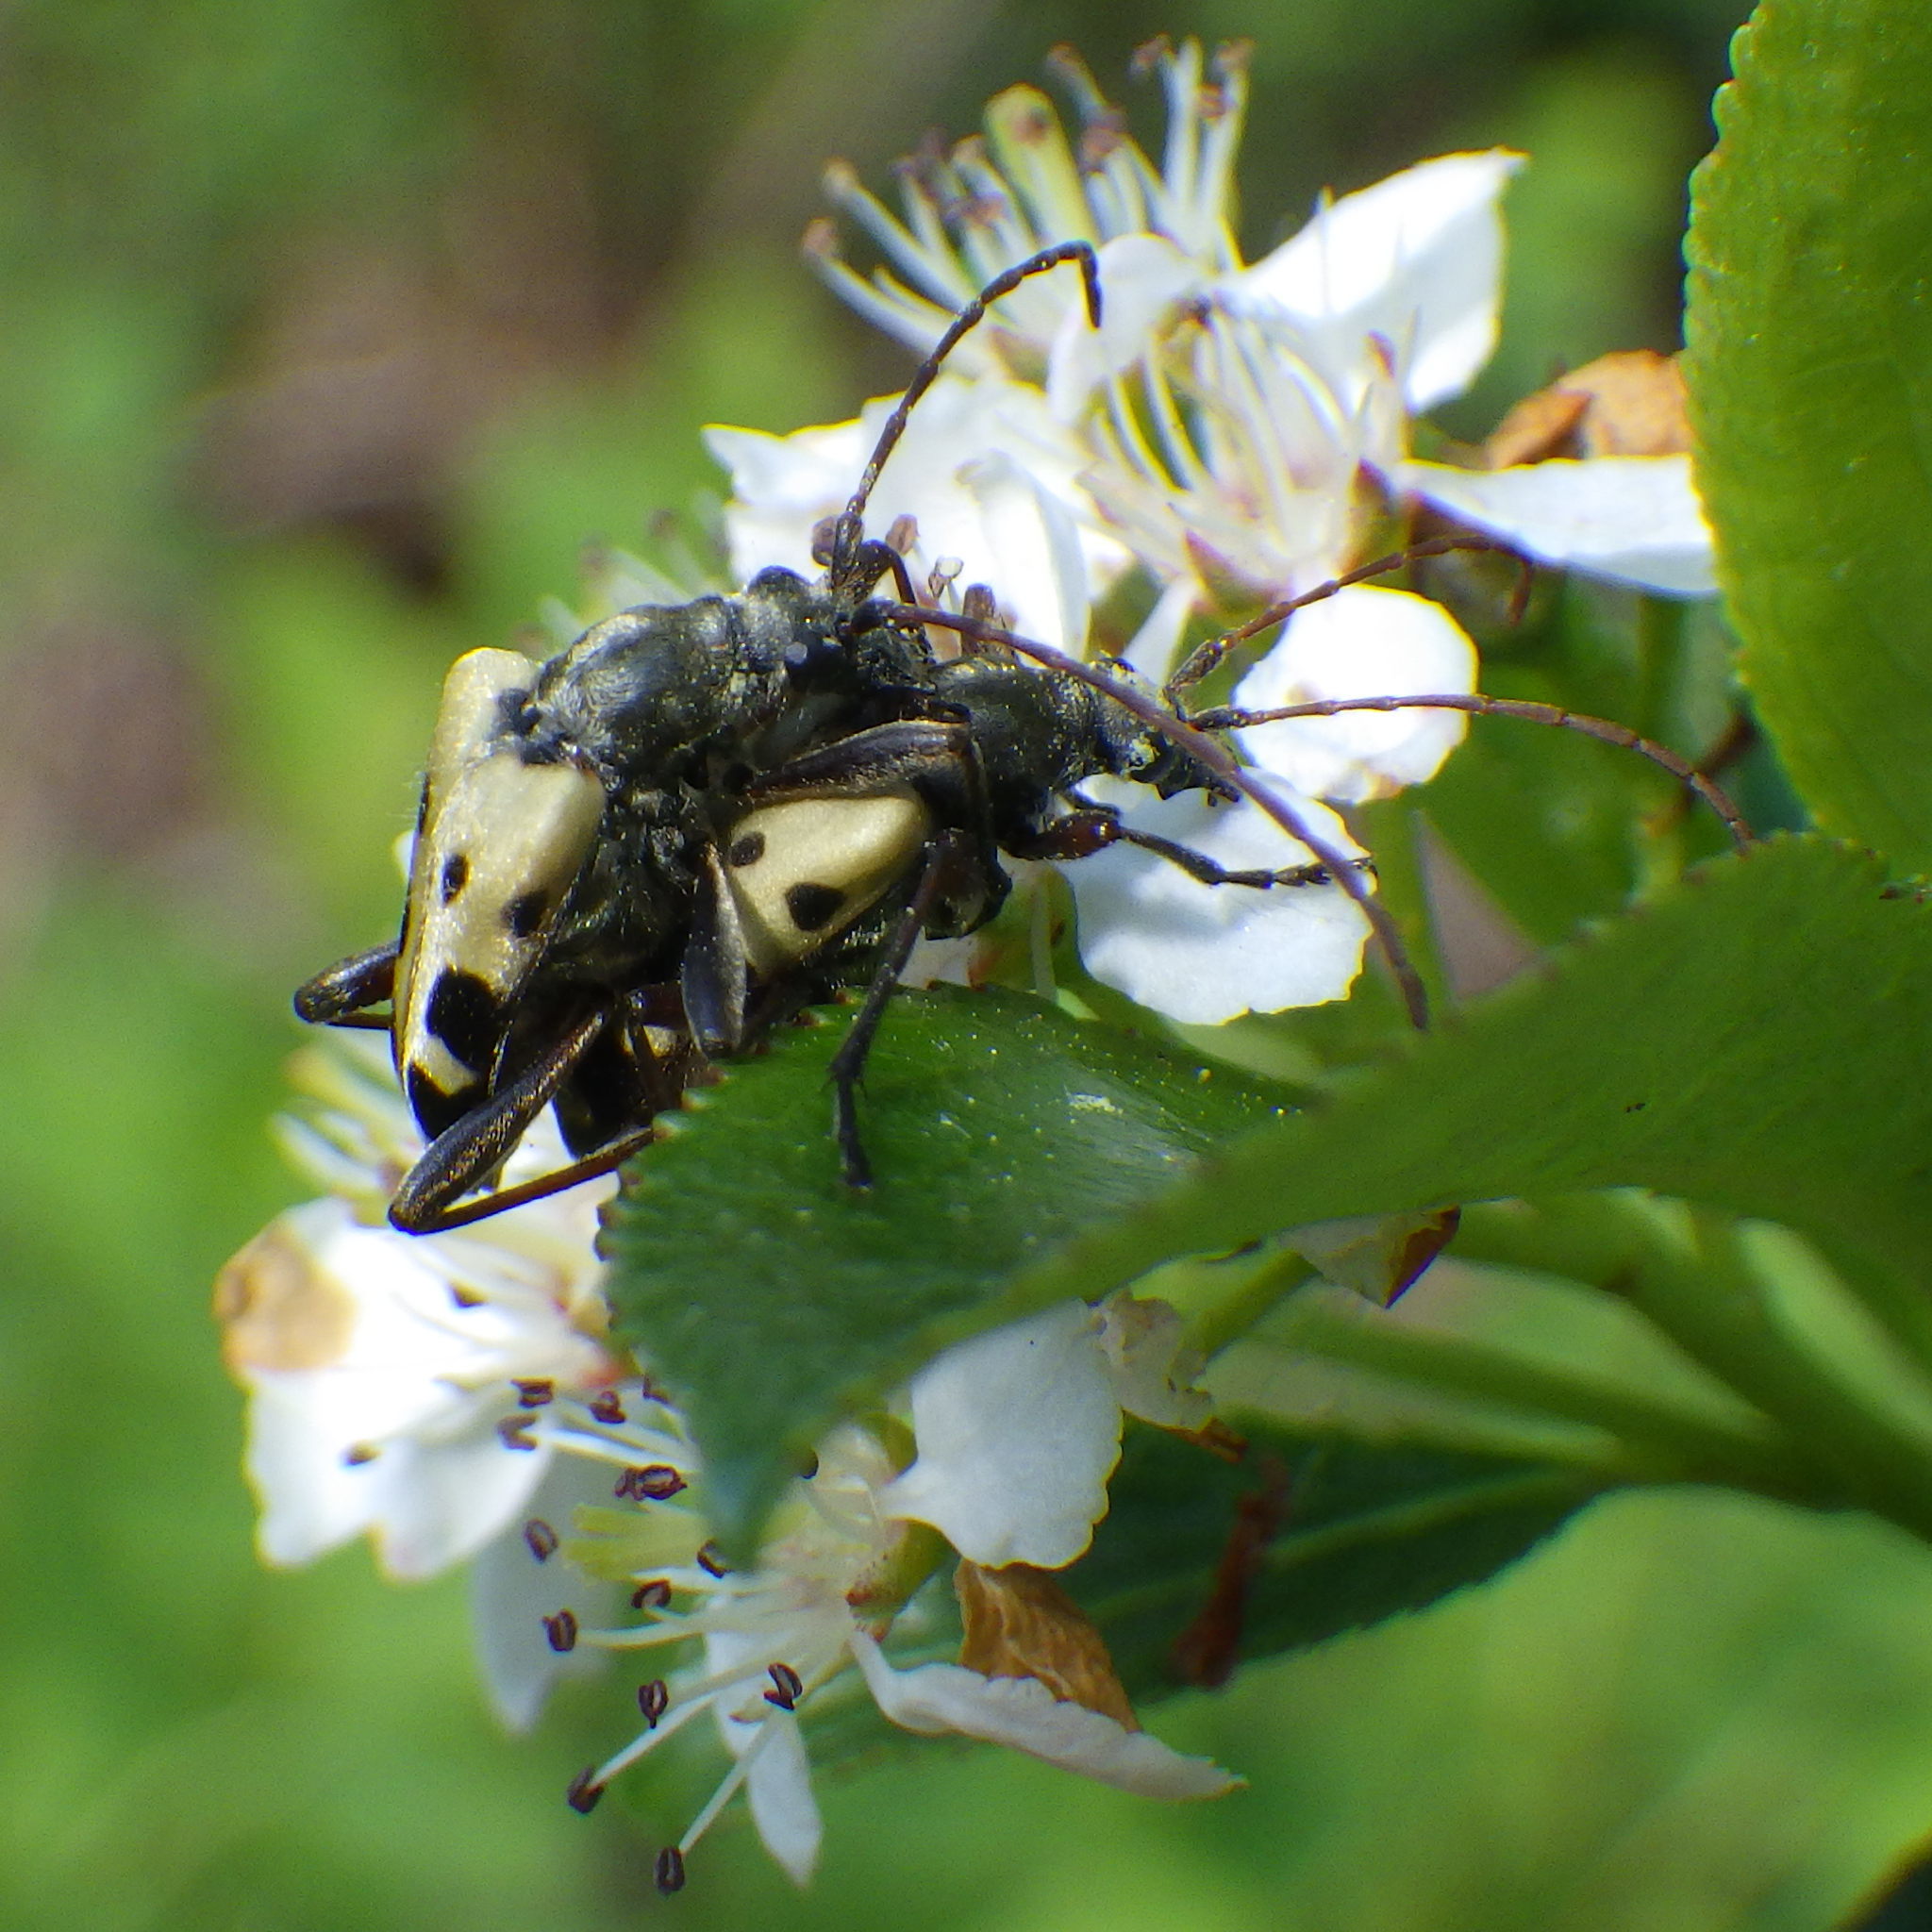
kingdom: Animalia
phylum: Arthropoda
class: Insecta
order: Coleoptera
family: Cerambycidae
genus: Evodinus
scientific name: Evodinus monticola
